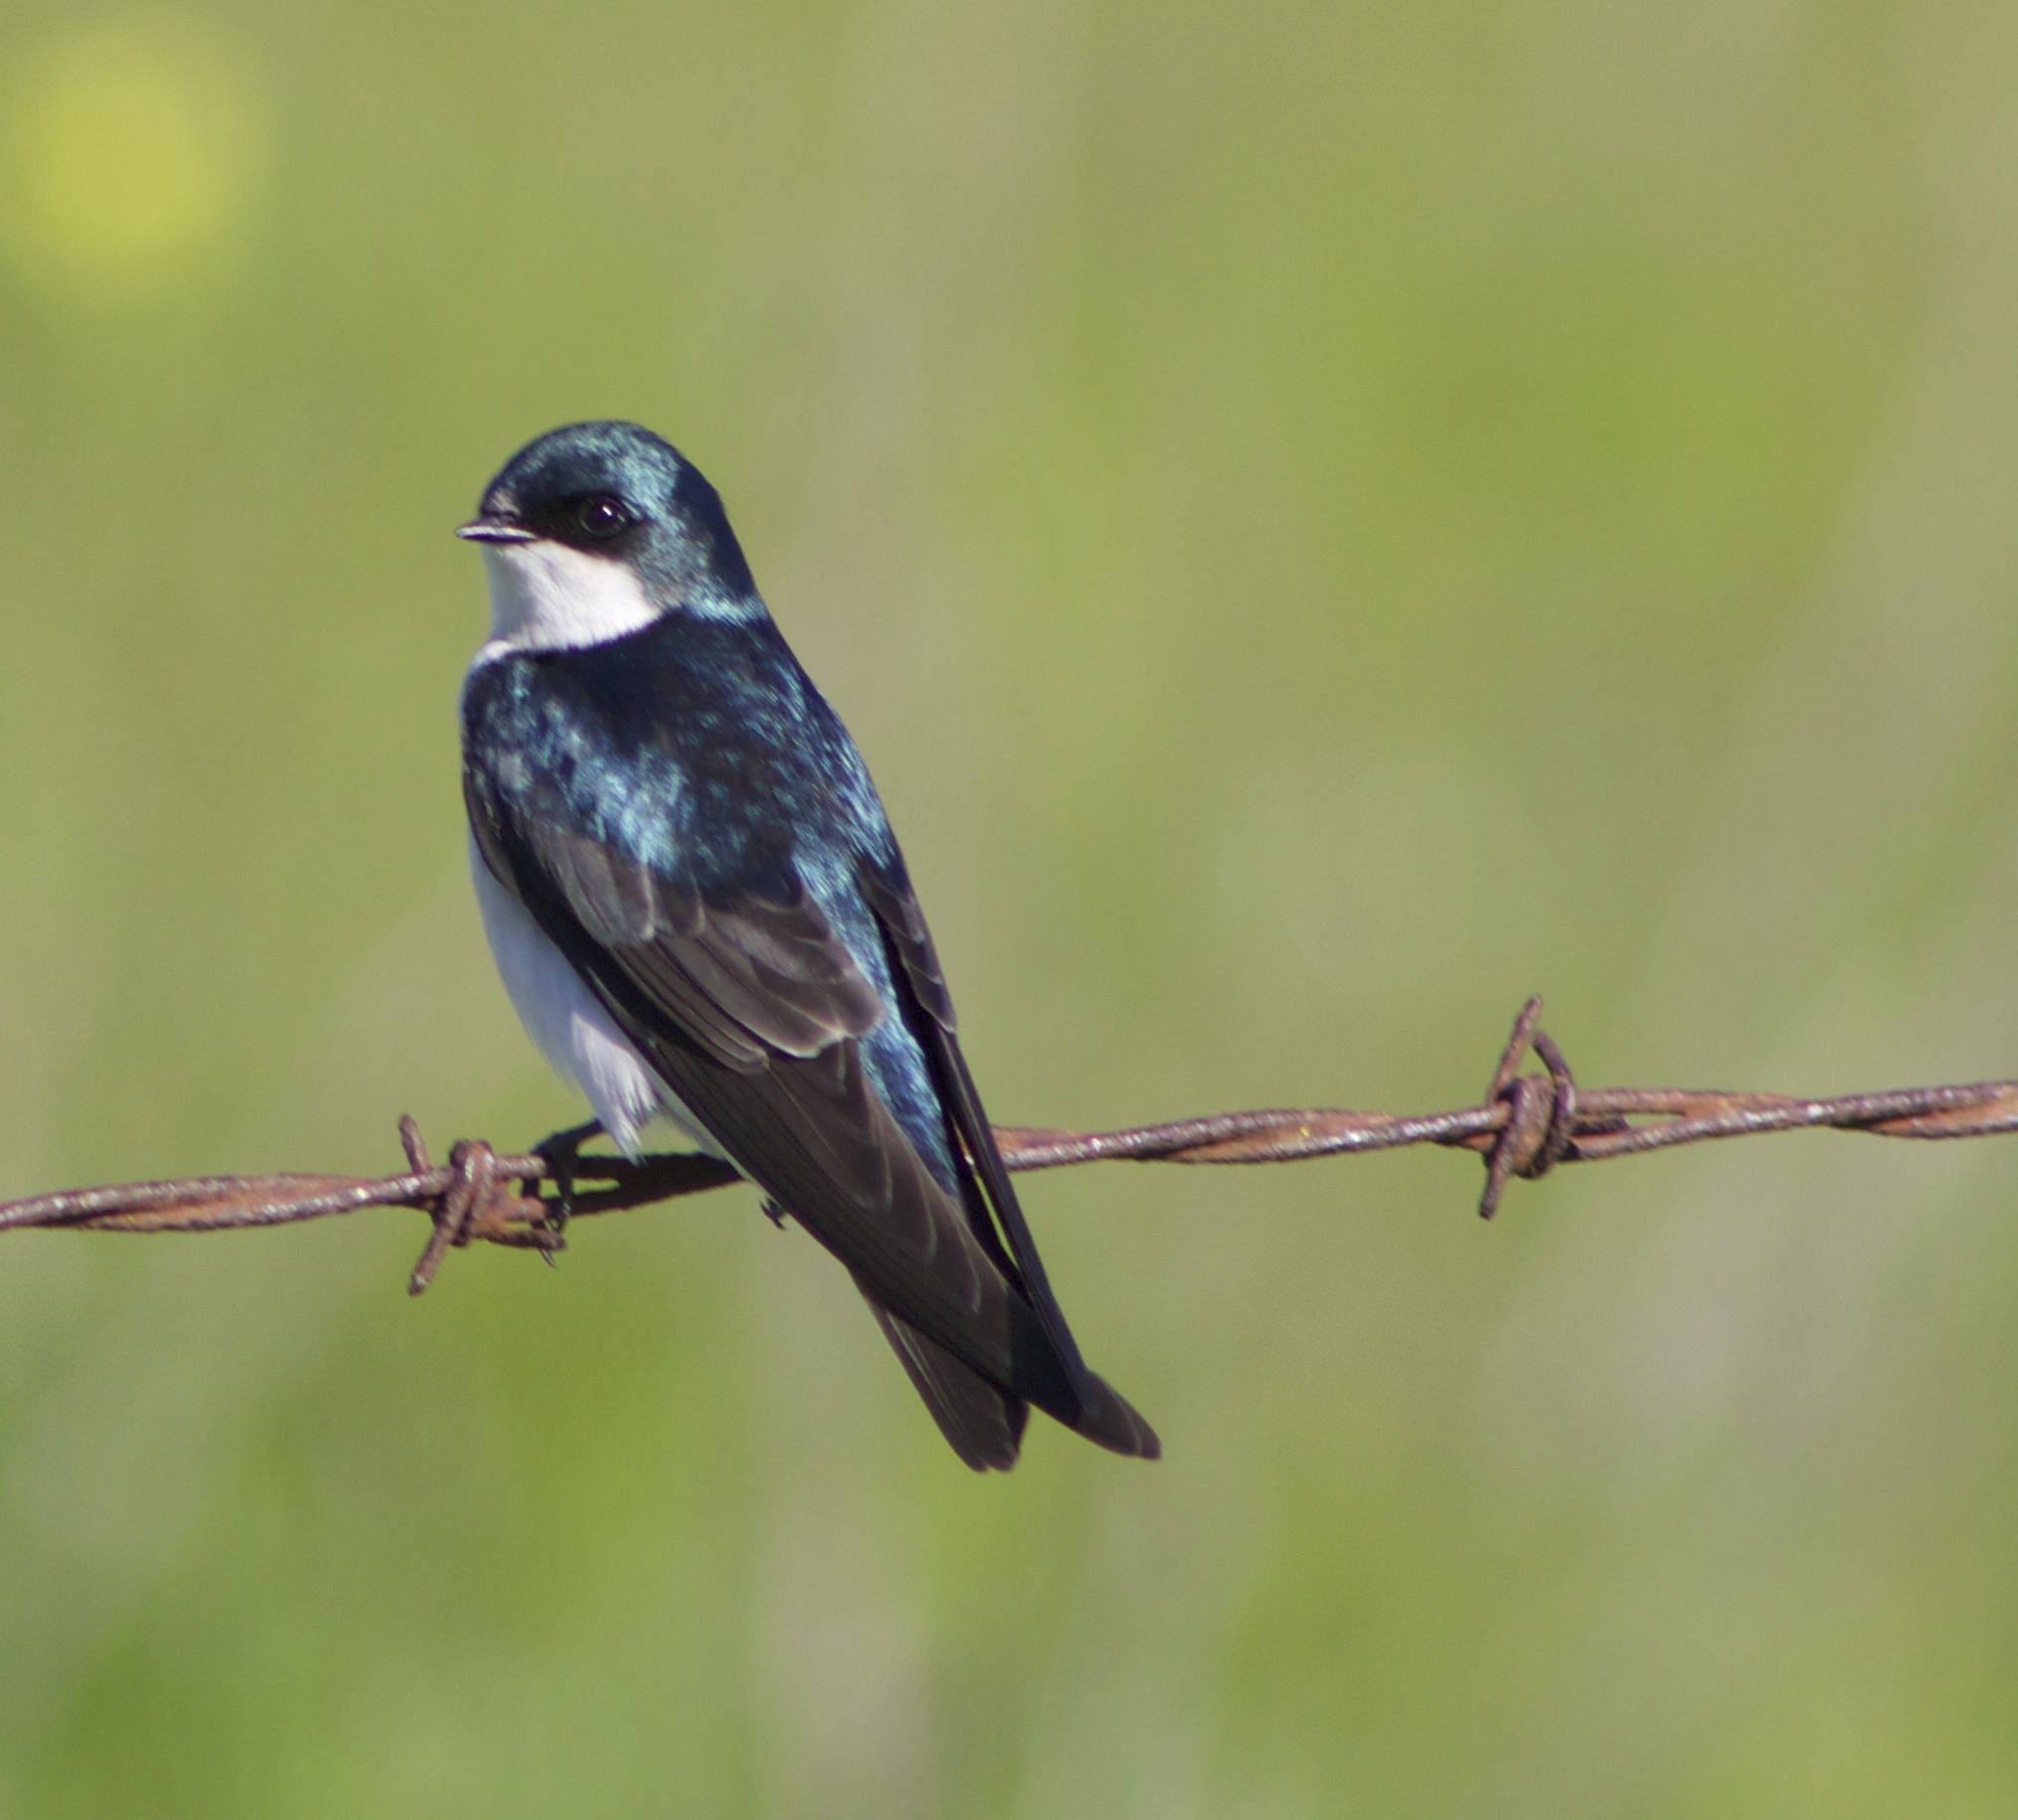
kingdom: Animalia
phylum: Chordata
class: Aves
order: Passeriformes
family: Hirundinidae
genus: Tachycineta
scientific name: Tachycineta bicolor
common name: Tree swallow
